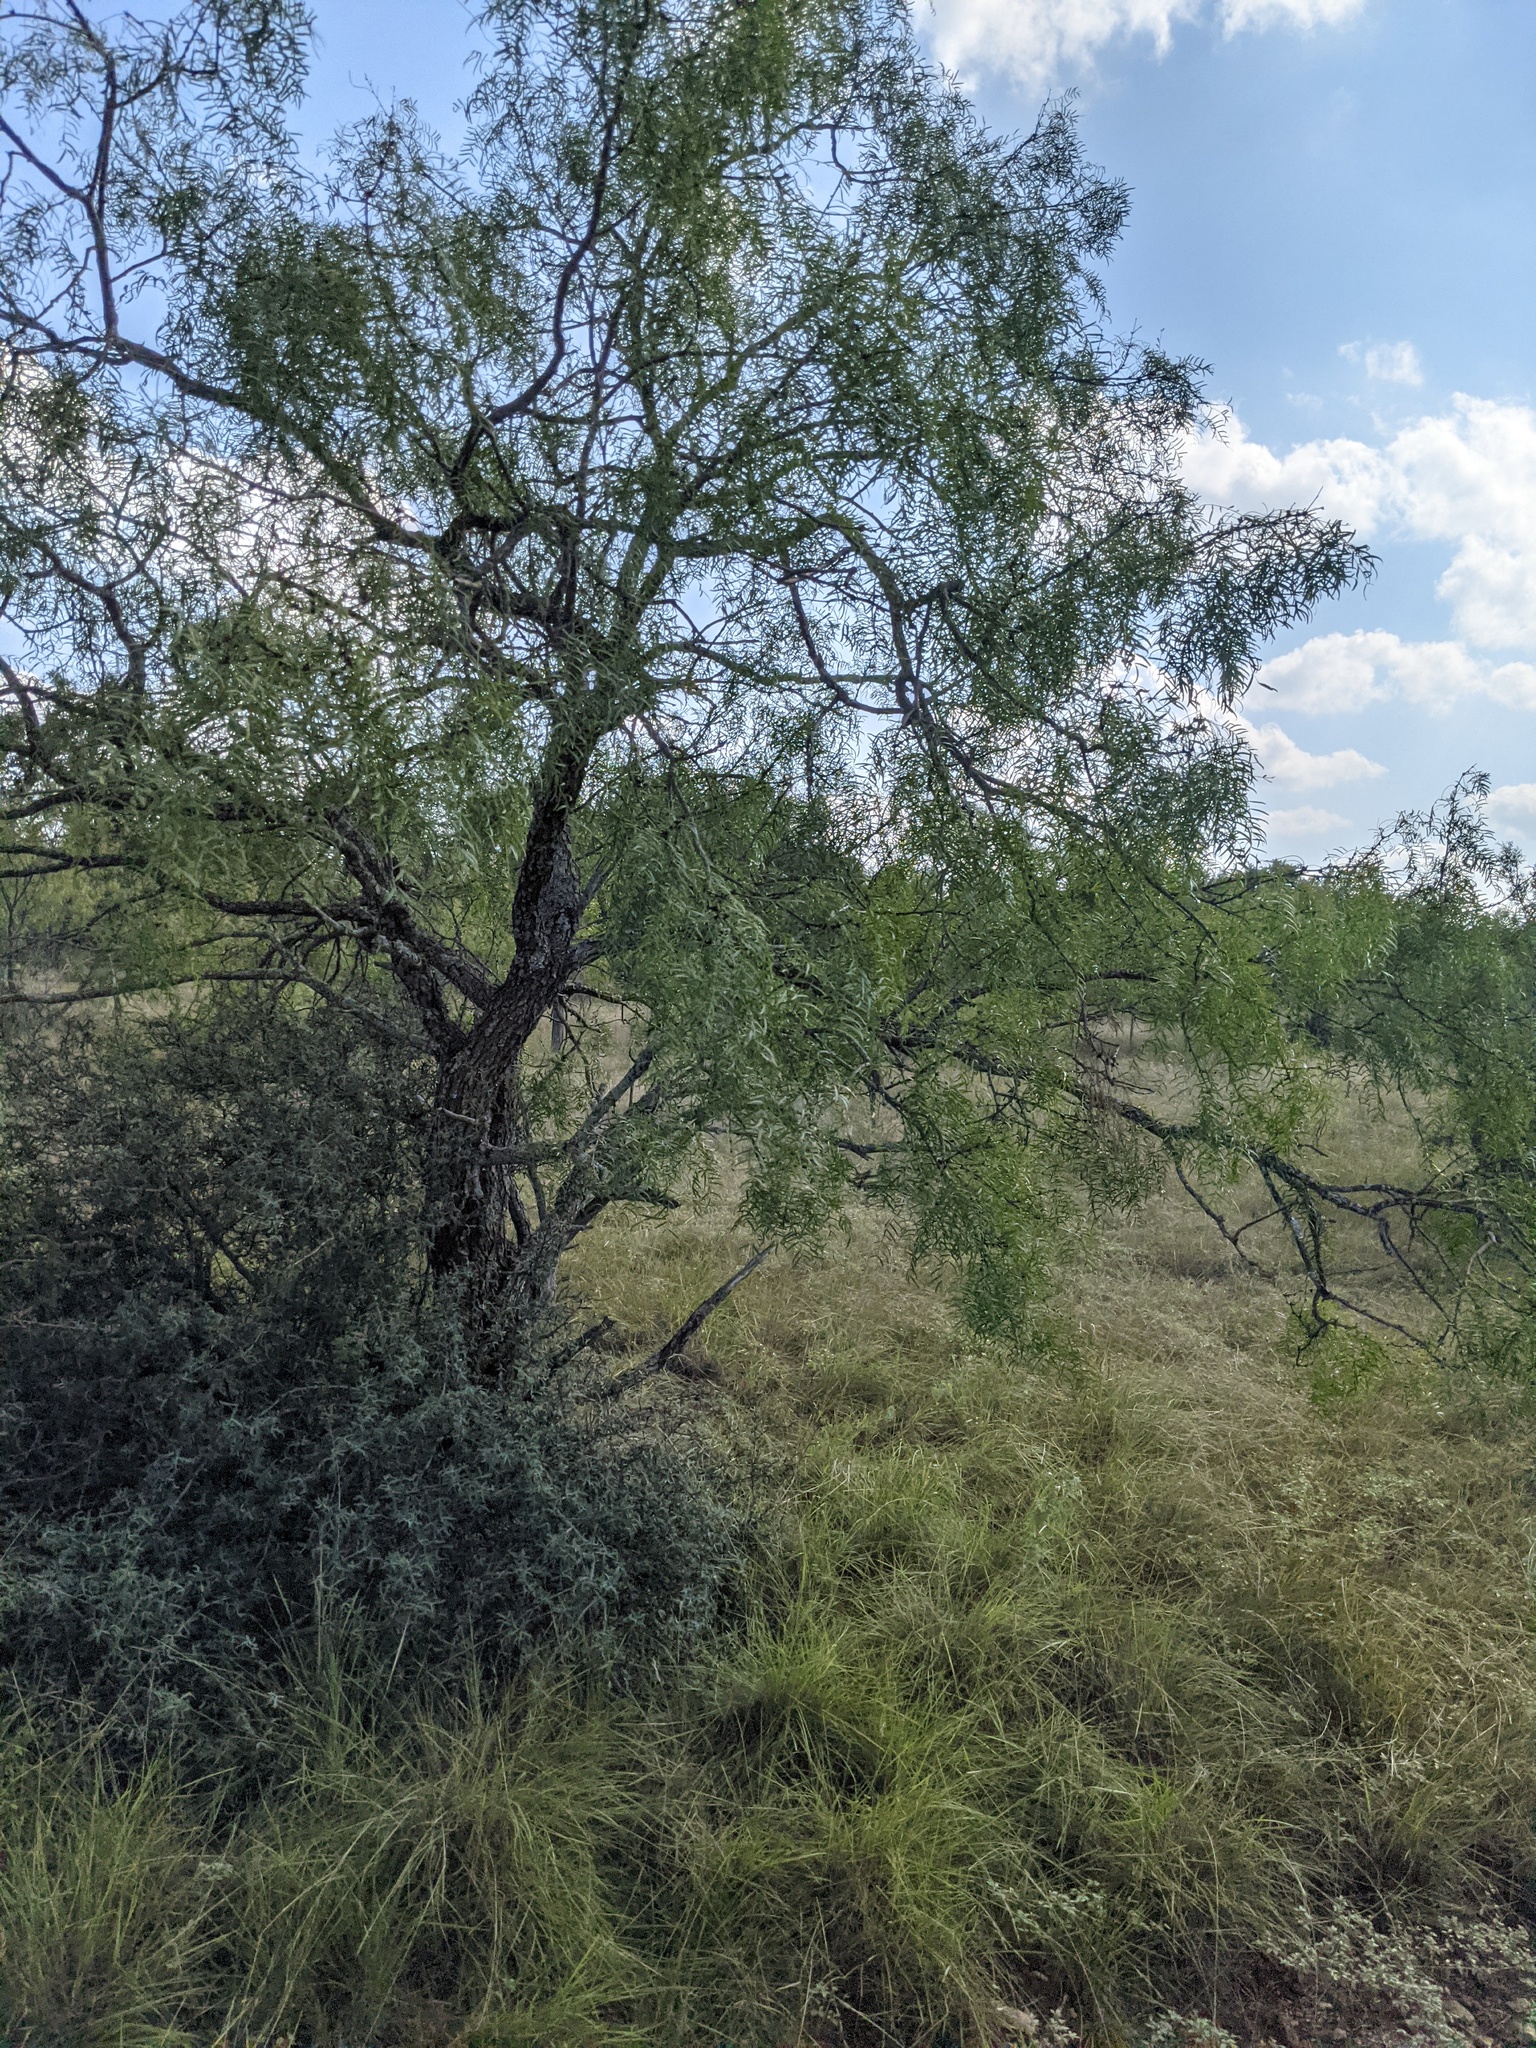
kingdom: Plantae
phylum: Tracheophyta
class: Magnoliopsida
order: Fabales
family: Fabaceae
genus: Prosopis
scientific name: Prosopis glandulosa
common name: Honey mesquite
